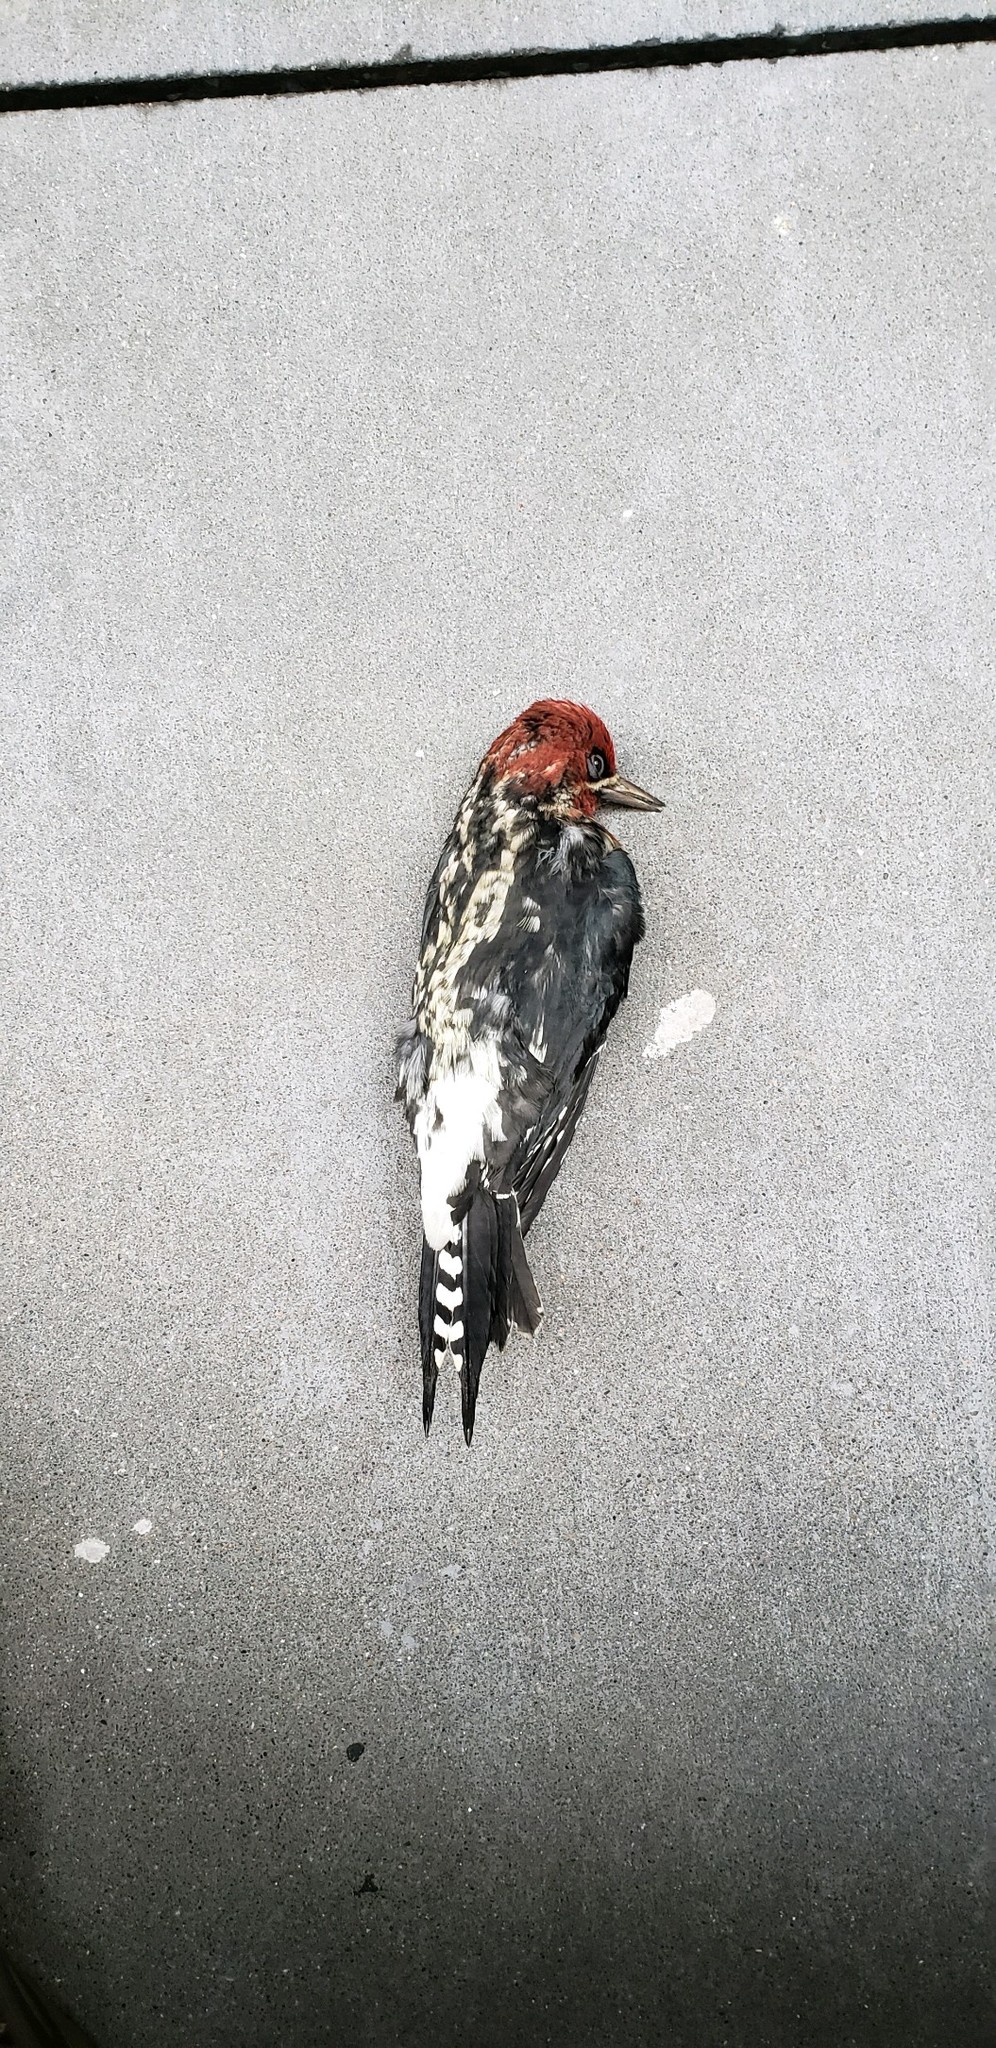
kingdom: Animalia
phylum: Chordata
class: Aves
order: Piciformes
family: Picidae
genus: Sphyrapicus
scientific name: Sphyrapicus ruber
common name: Red-breasted sapsucker
